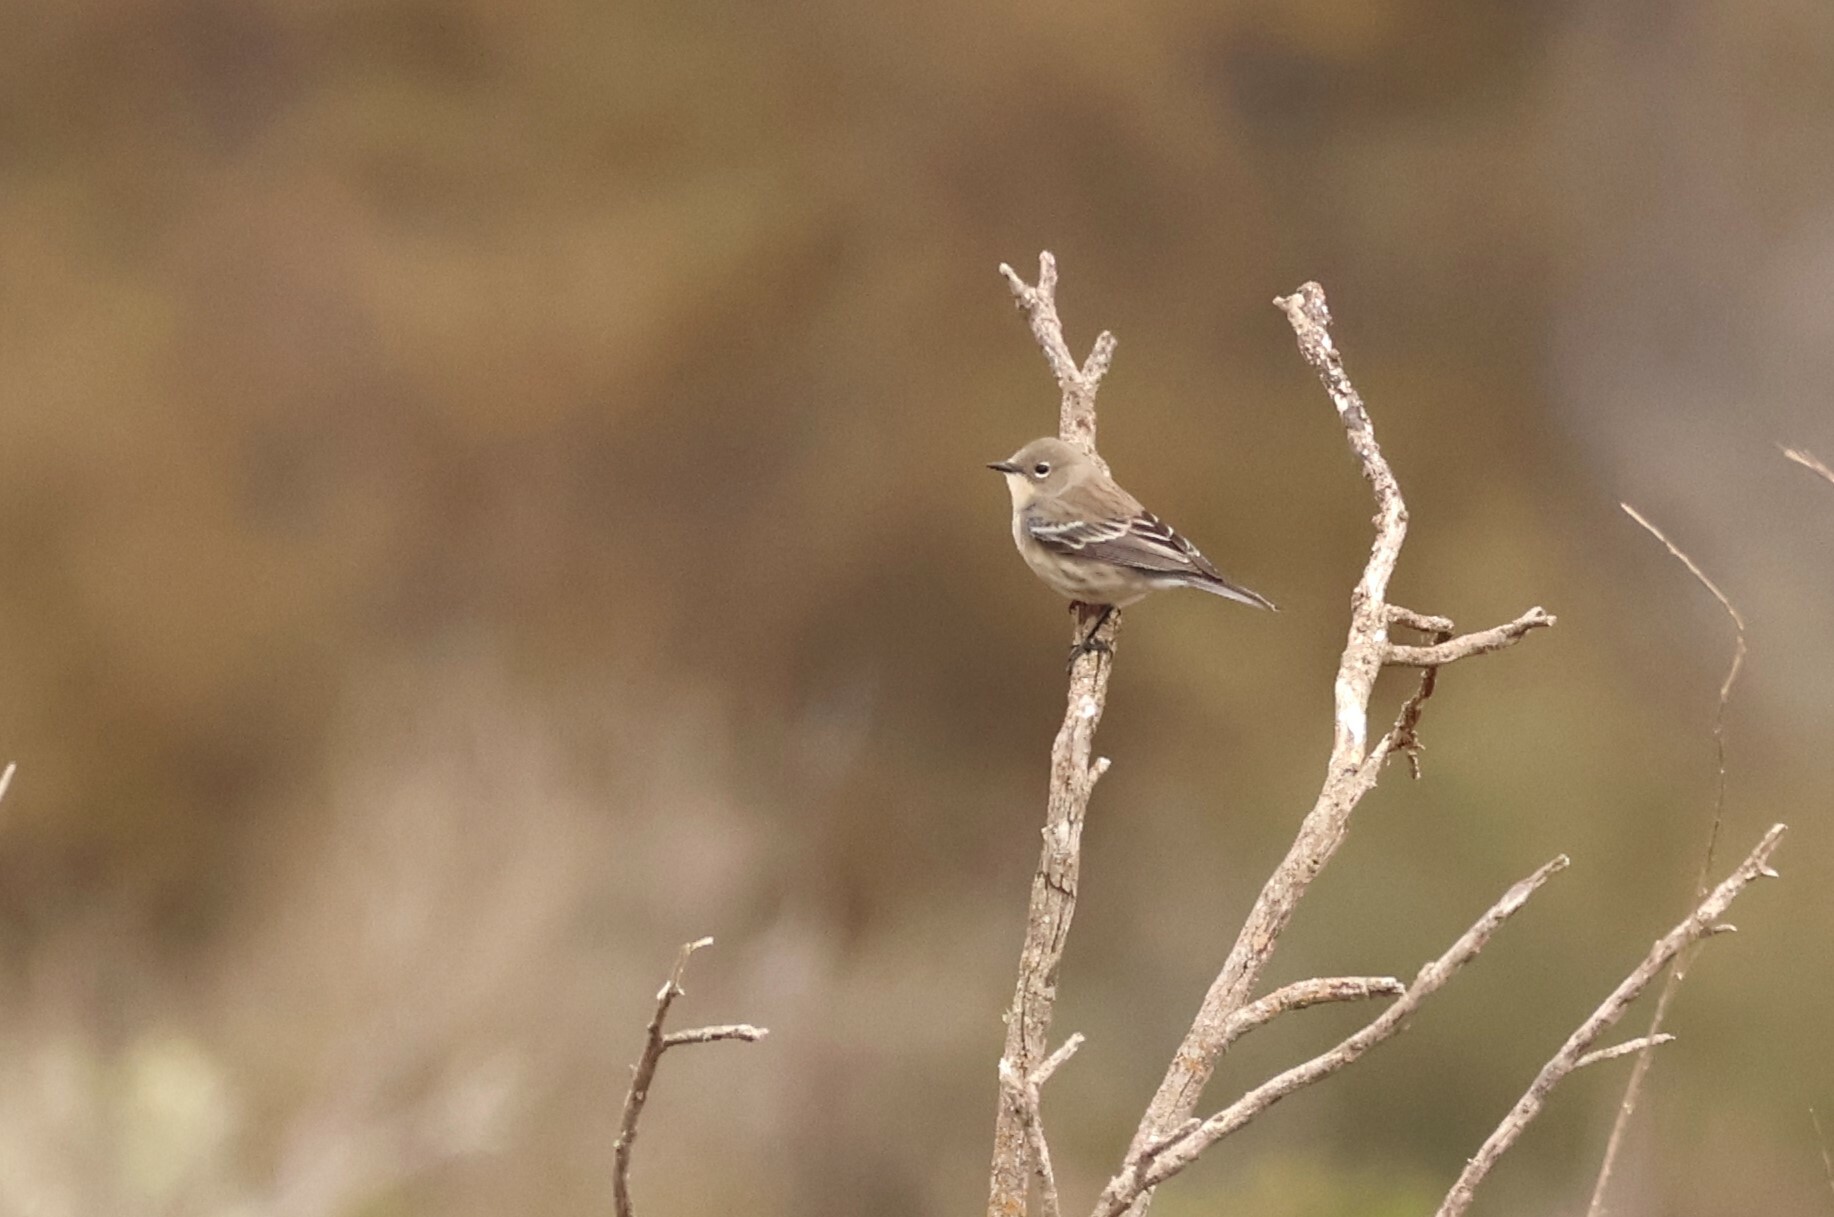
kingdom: Animalia
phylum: Chordata
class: Aves
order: Passeriformes
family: Parulidae
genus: Setophaga
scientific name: Setophaga coronata
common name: Myrtle warbler
